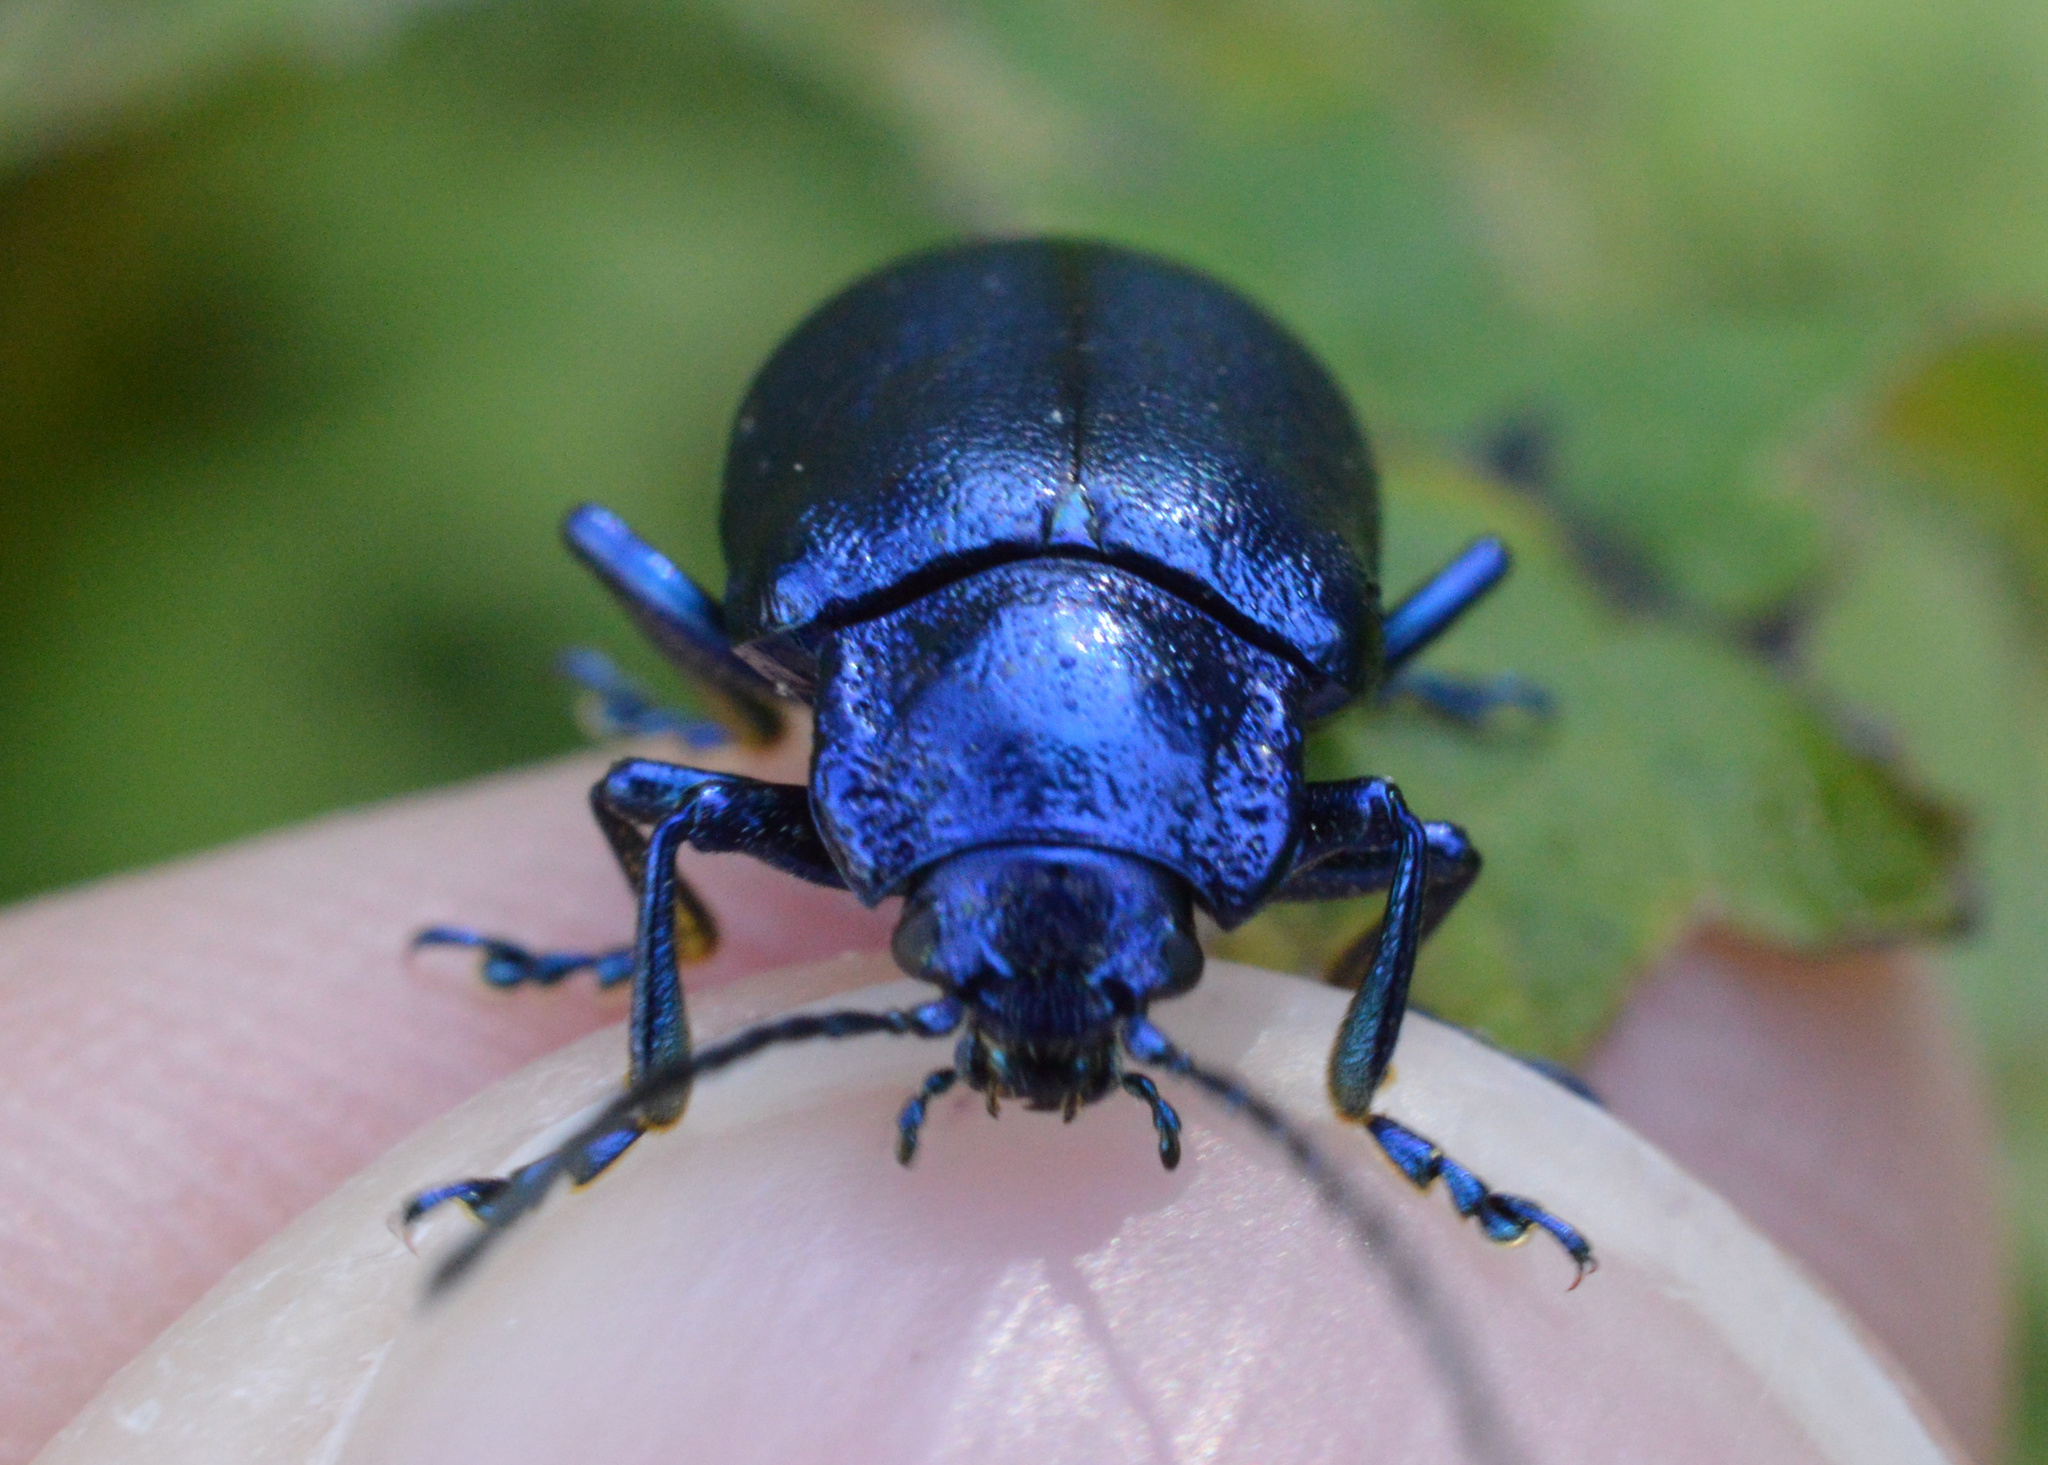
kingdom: Animalia
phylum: Arthropoda
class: Insecta
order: Coleoptera
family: Chrysomelidae
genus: Oreina
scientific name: Oreina cacaliae
